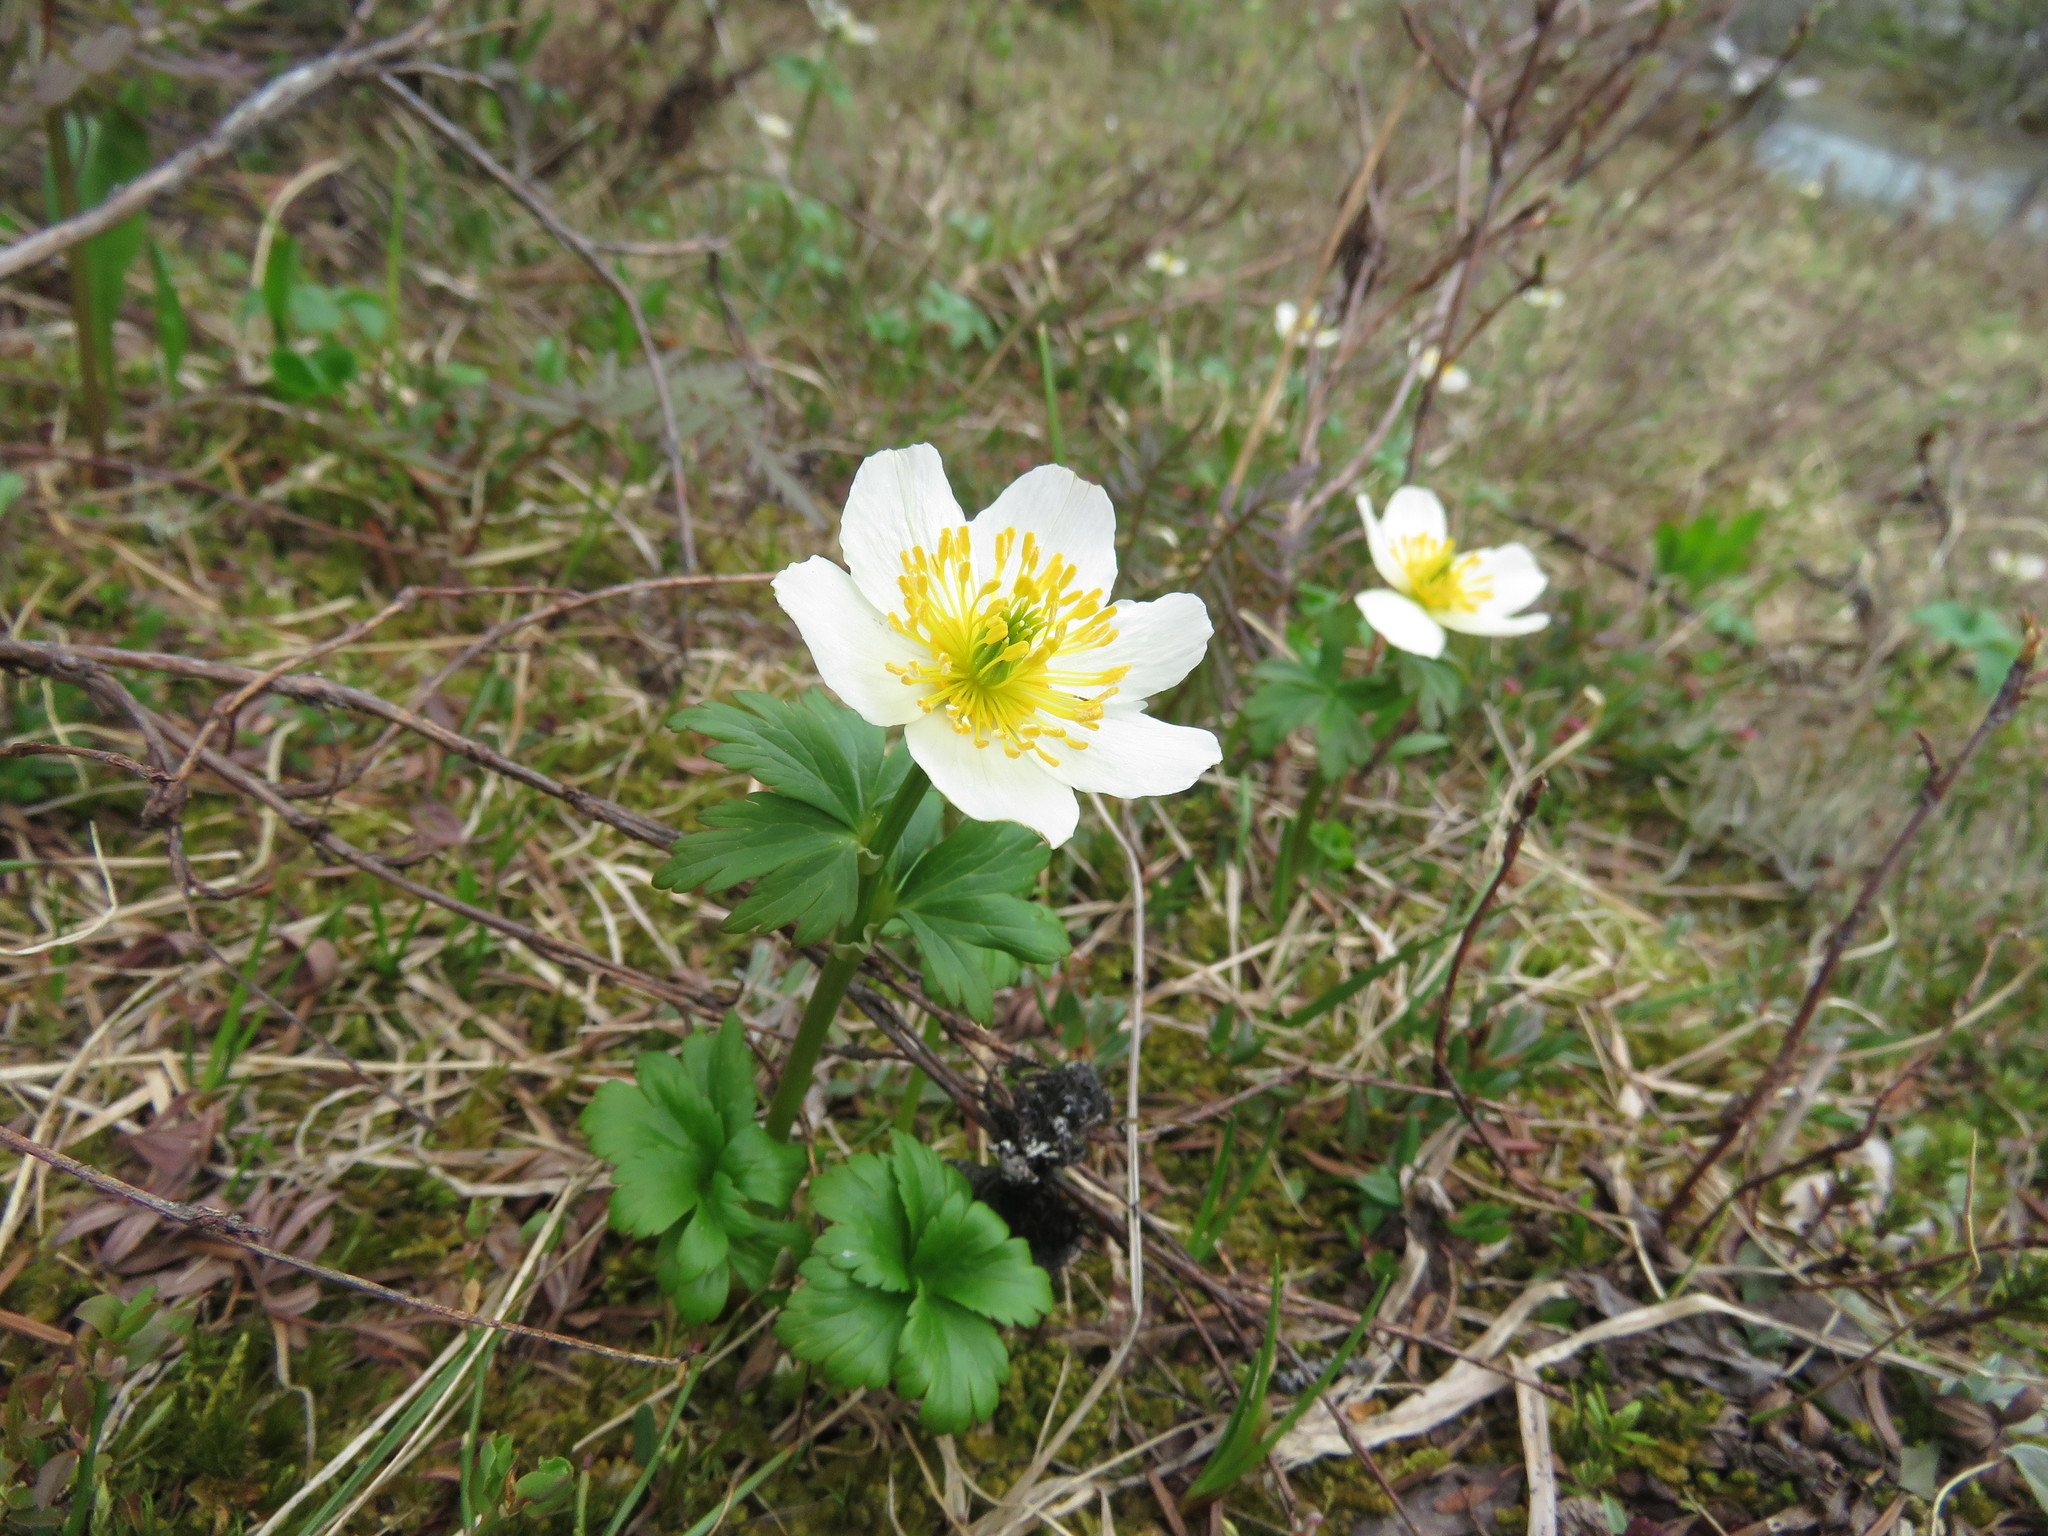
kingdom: Plantae
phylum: Tracheophyta
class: Magnoliopsida
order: Ranunculales
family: Ranunculaceae
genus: Trollius
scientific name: Trollius laxus
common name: American globeflower
